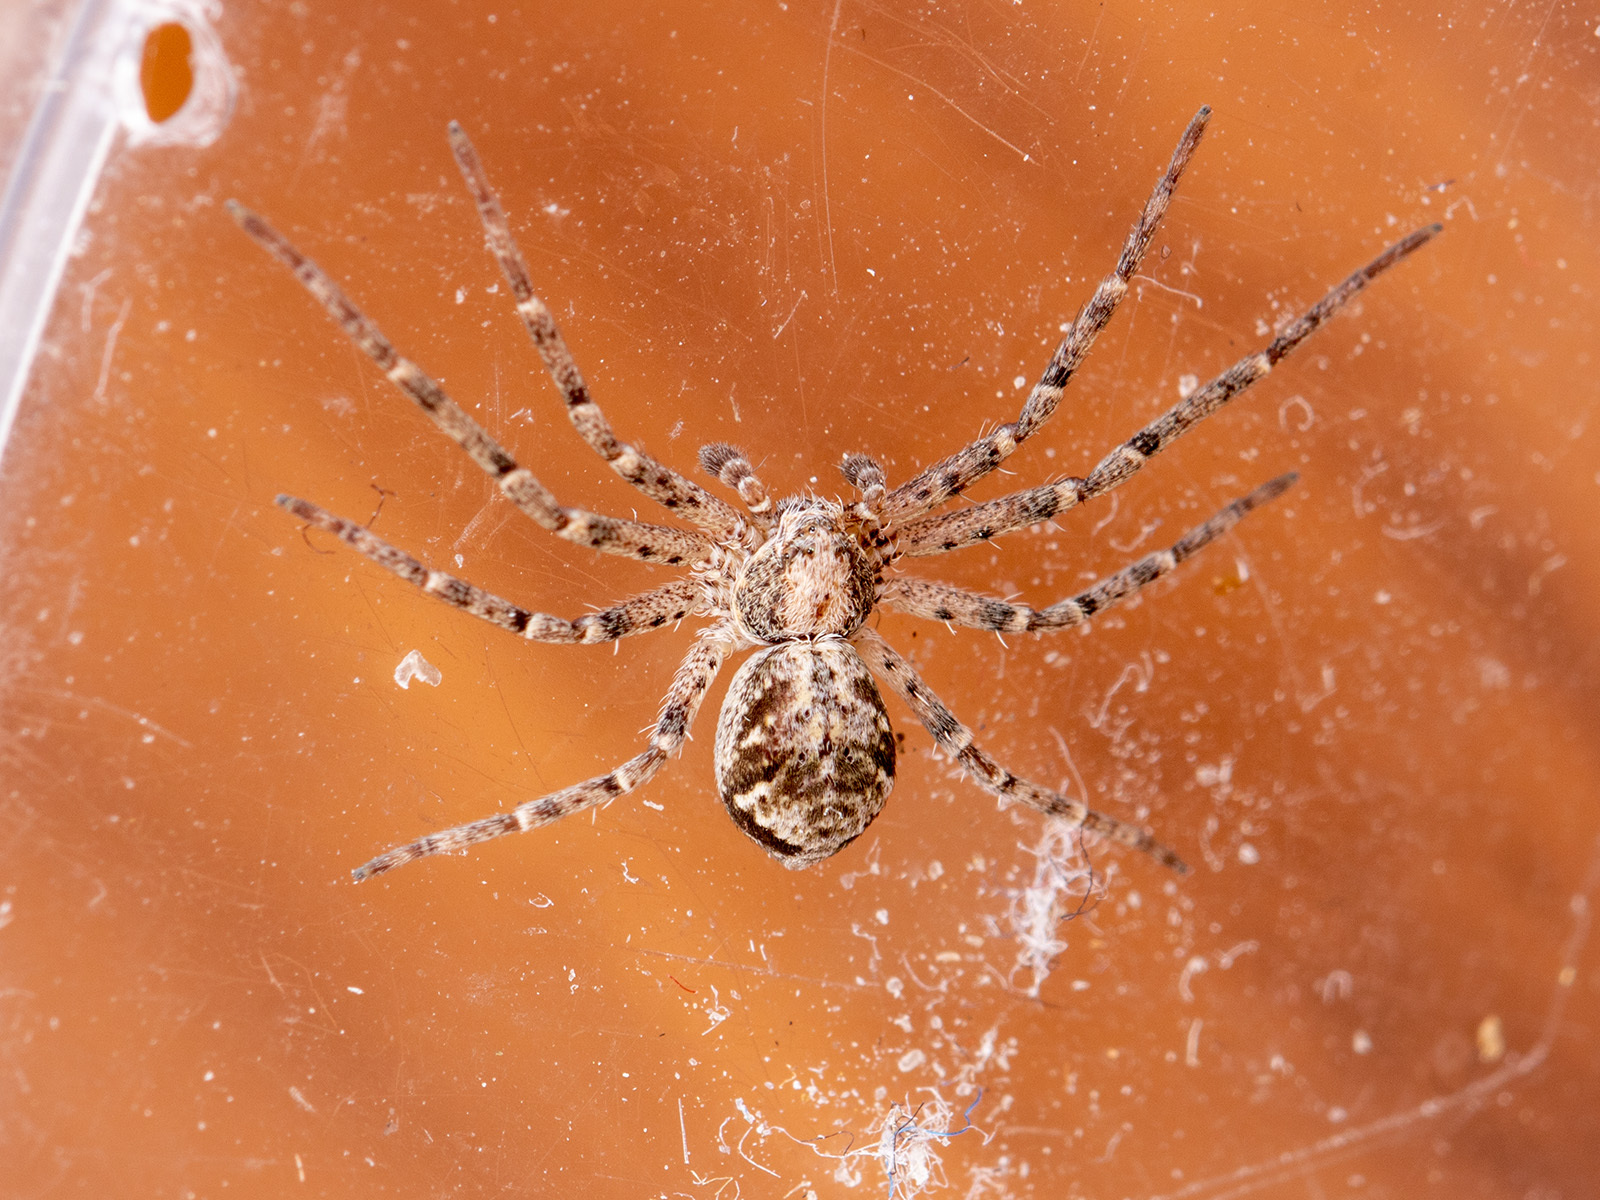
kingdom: Animalia
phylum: Arthropoda
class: Arachnida
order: Araneae
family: Philodromidae
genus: Rhysodromus
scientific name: Rhysodromus pictus
